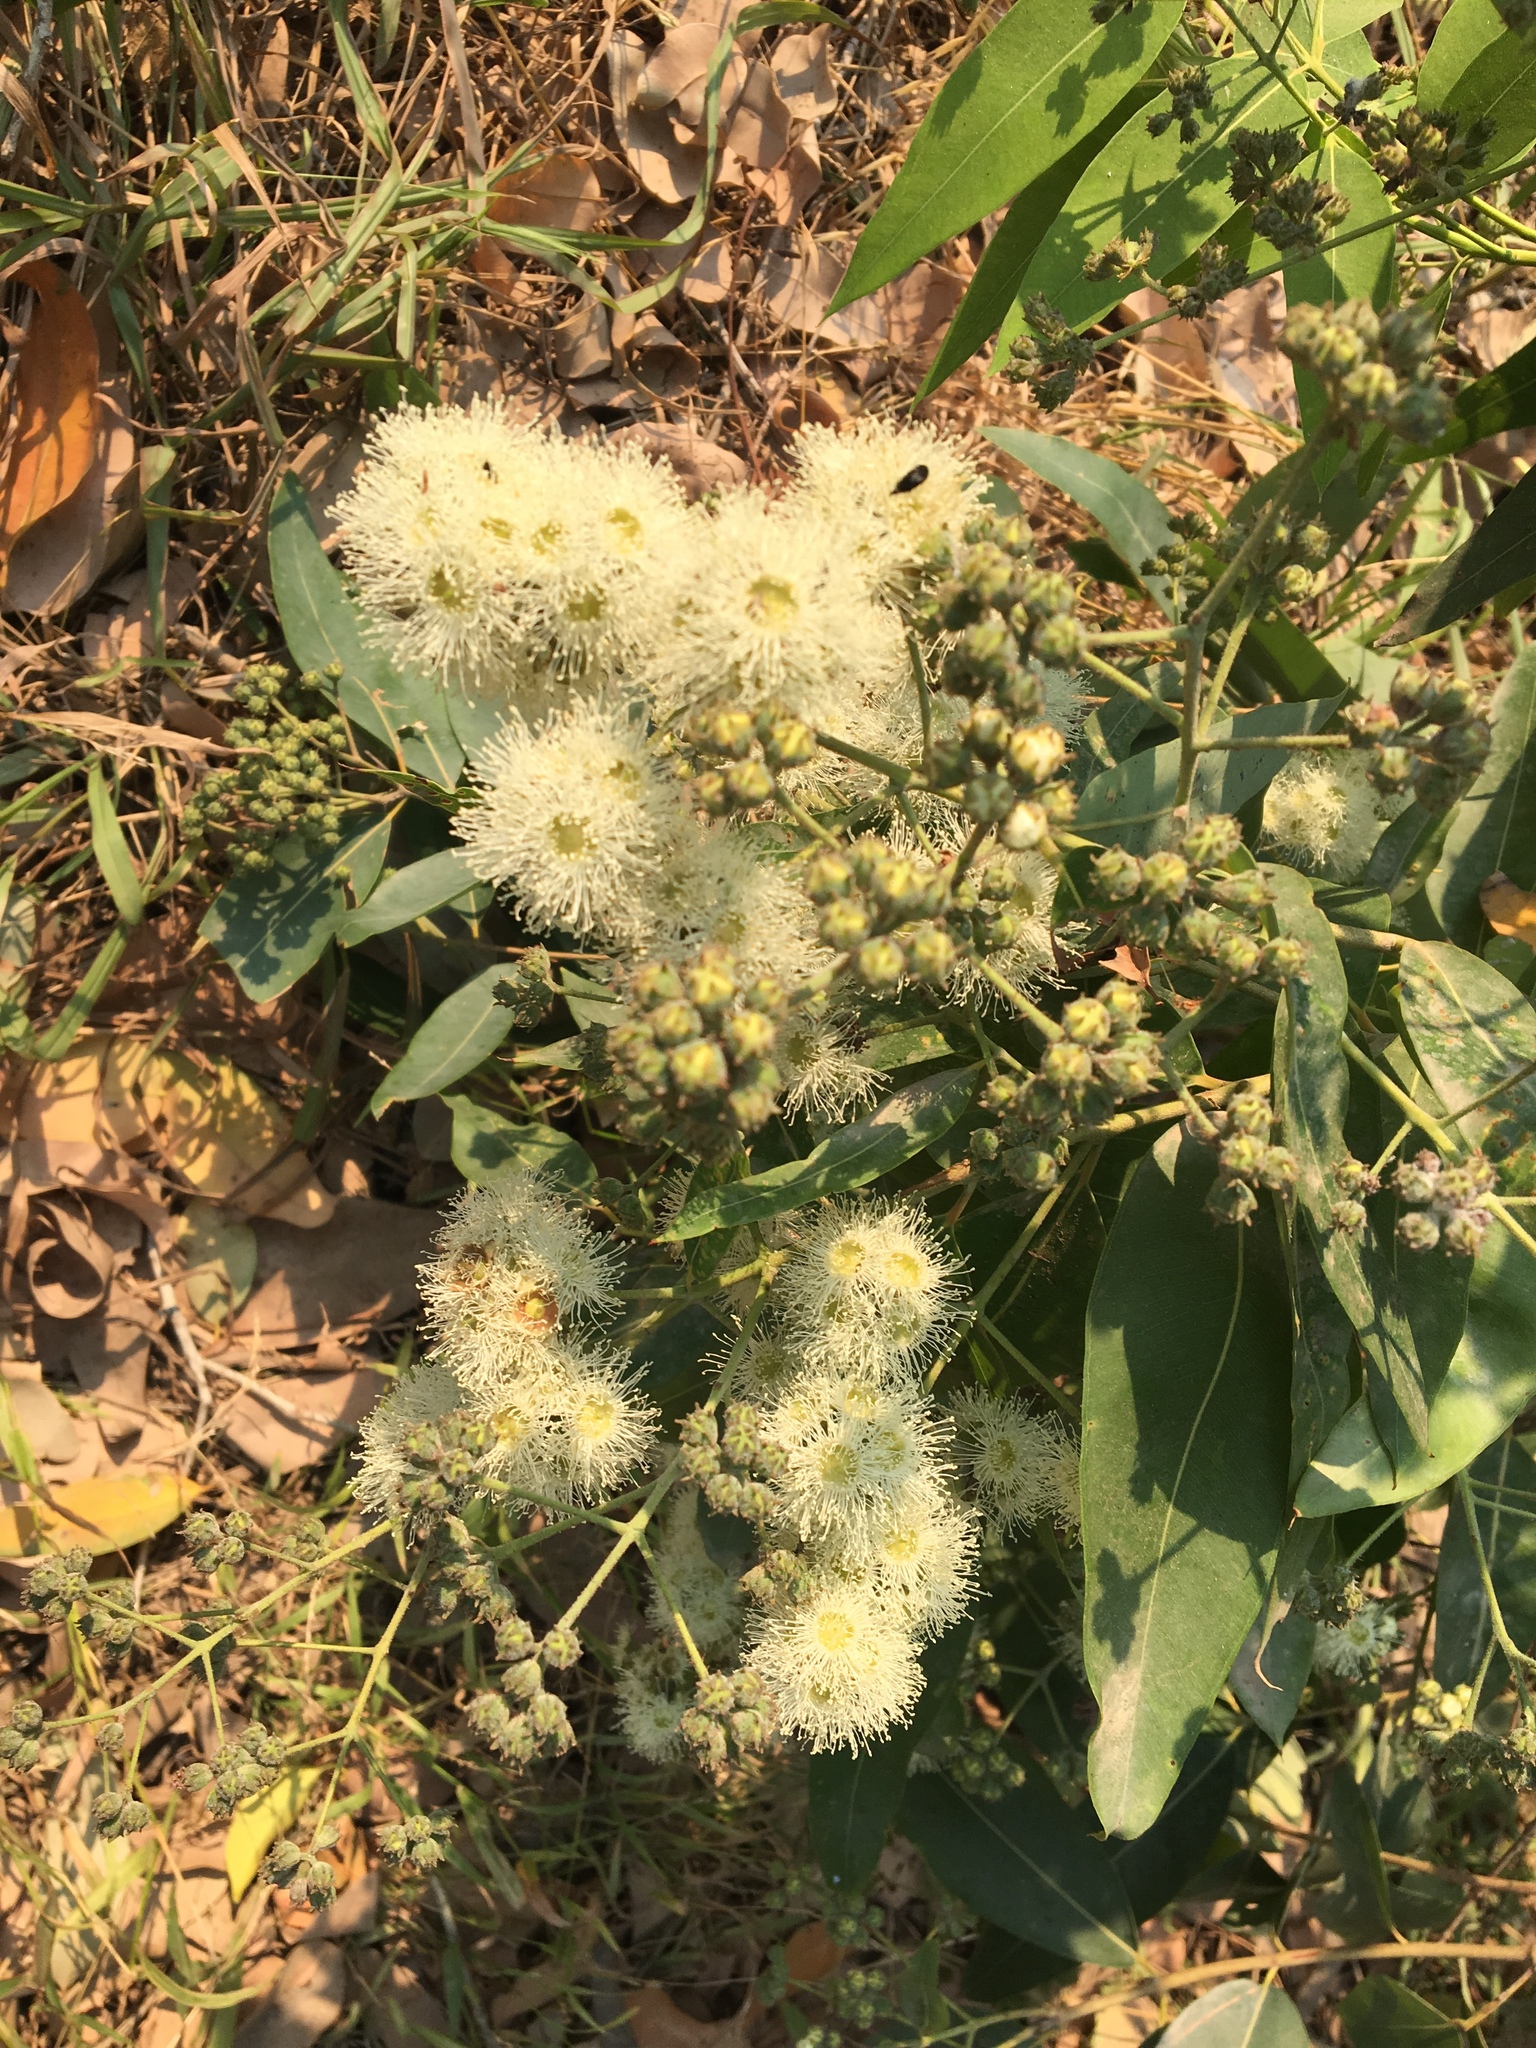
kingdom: Plantae
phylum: Tracheophyta
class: Magnoliopsida
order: Myrtales
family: Myrtaceae
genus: Angophora
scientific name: Angophora floribunda
